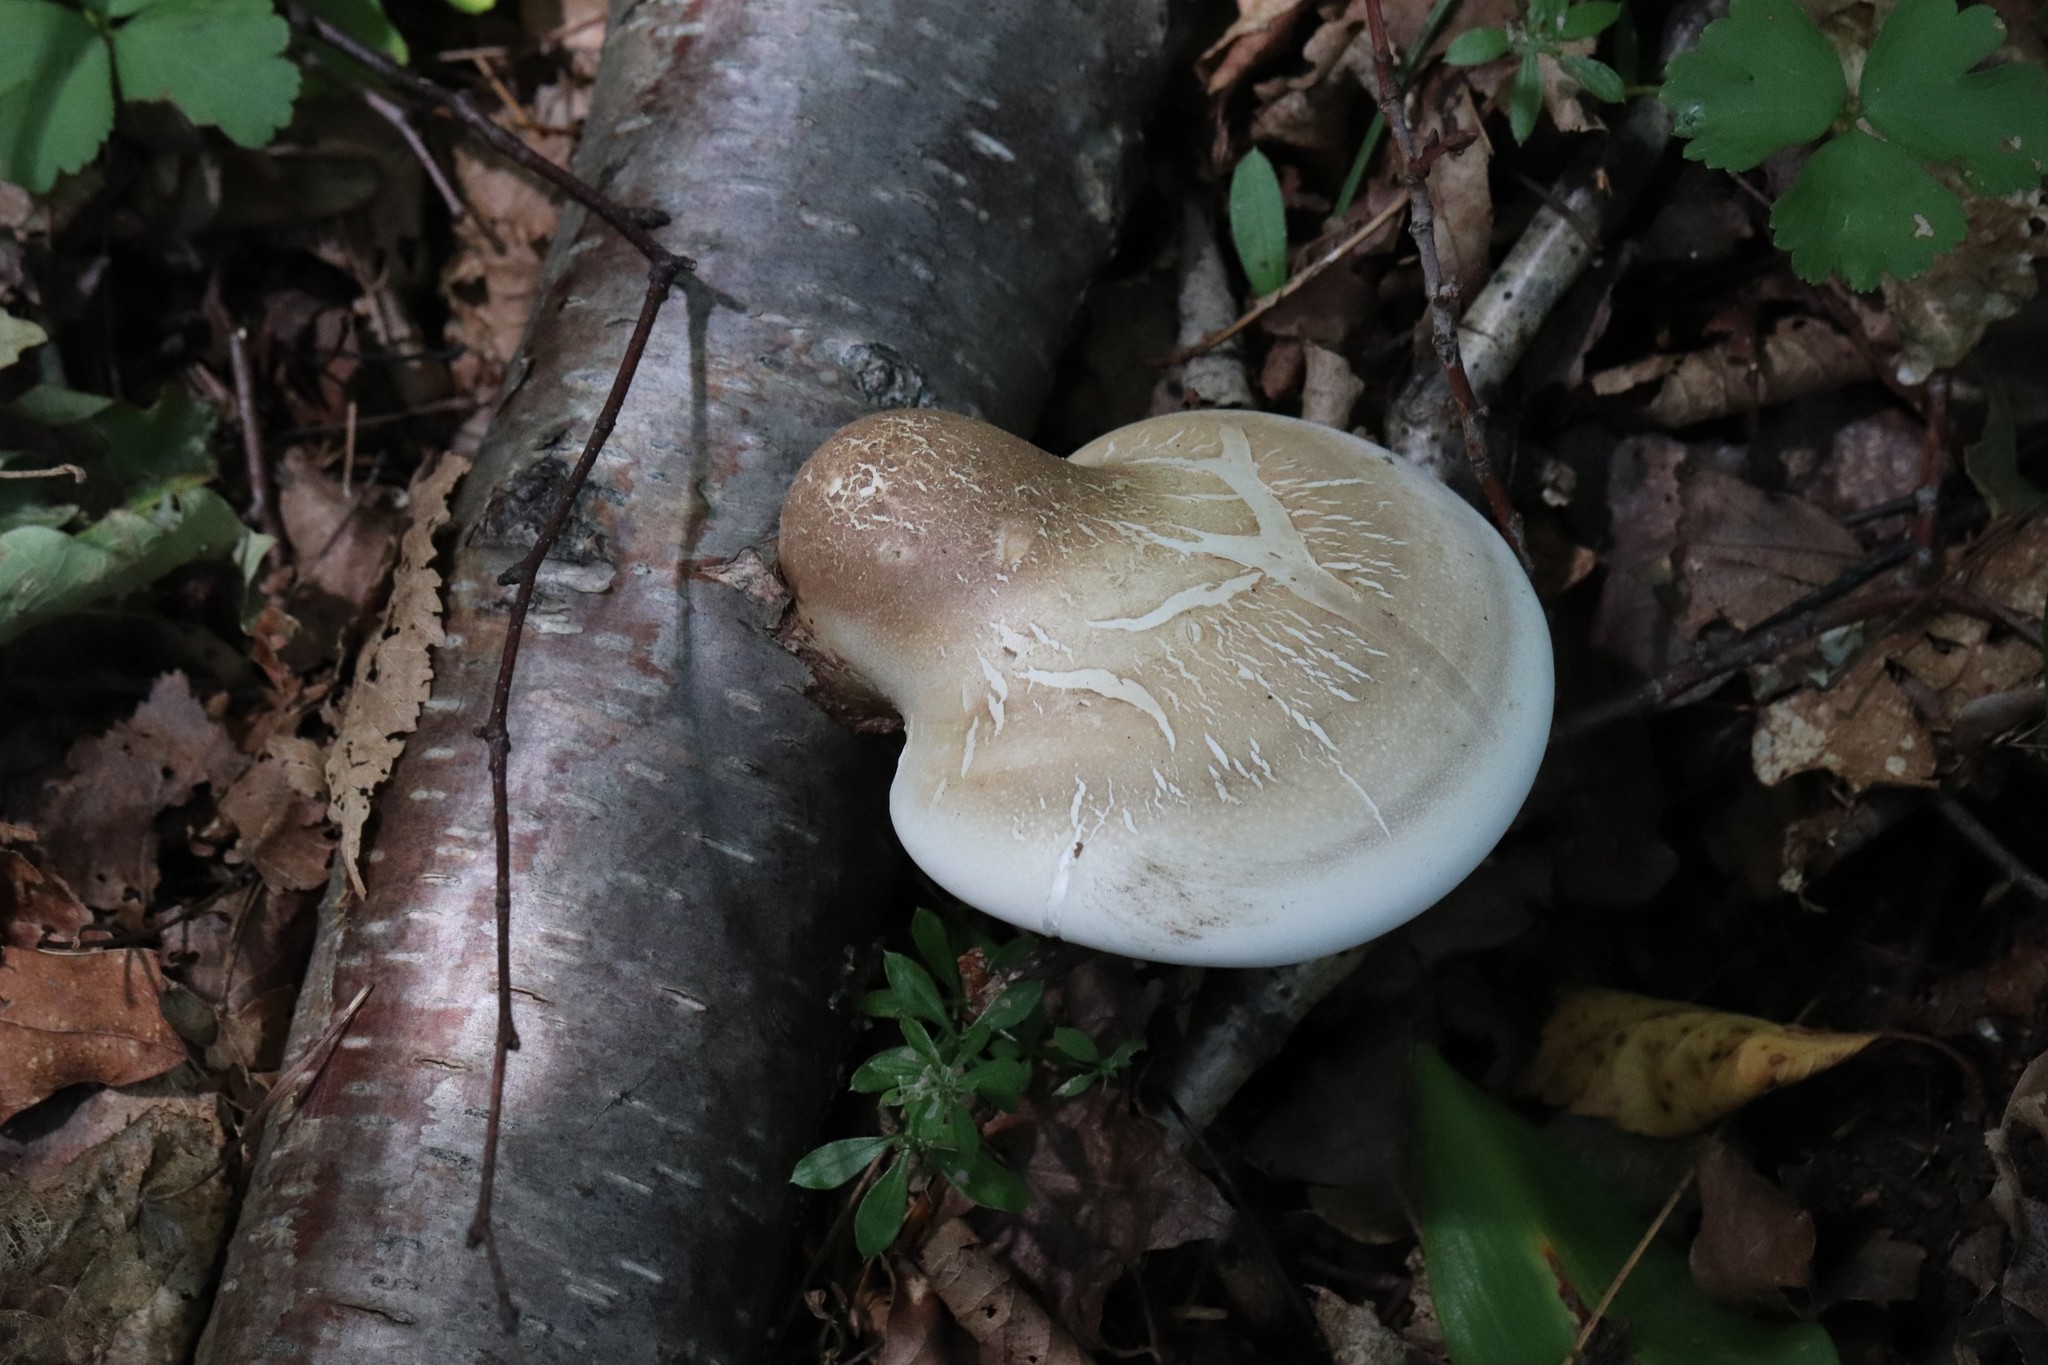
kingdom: Fungi
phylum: Basidiomycota
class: Agaricomycetes
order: Polyporales
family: Fomitopsidaceae
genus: Fomitopsis
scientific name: Fomitopsis betulina
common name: Birch polypore
